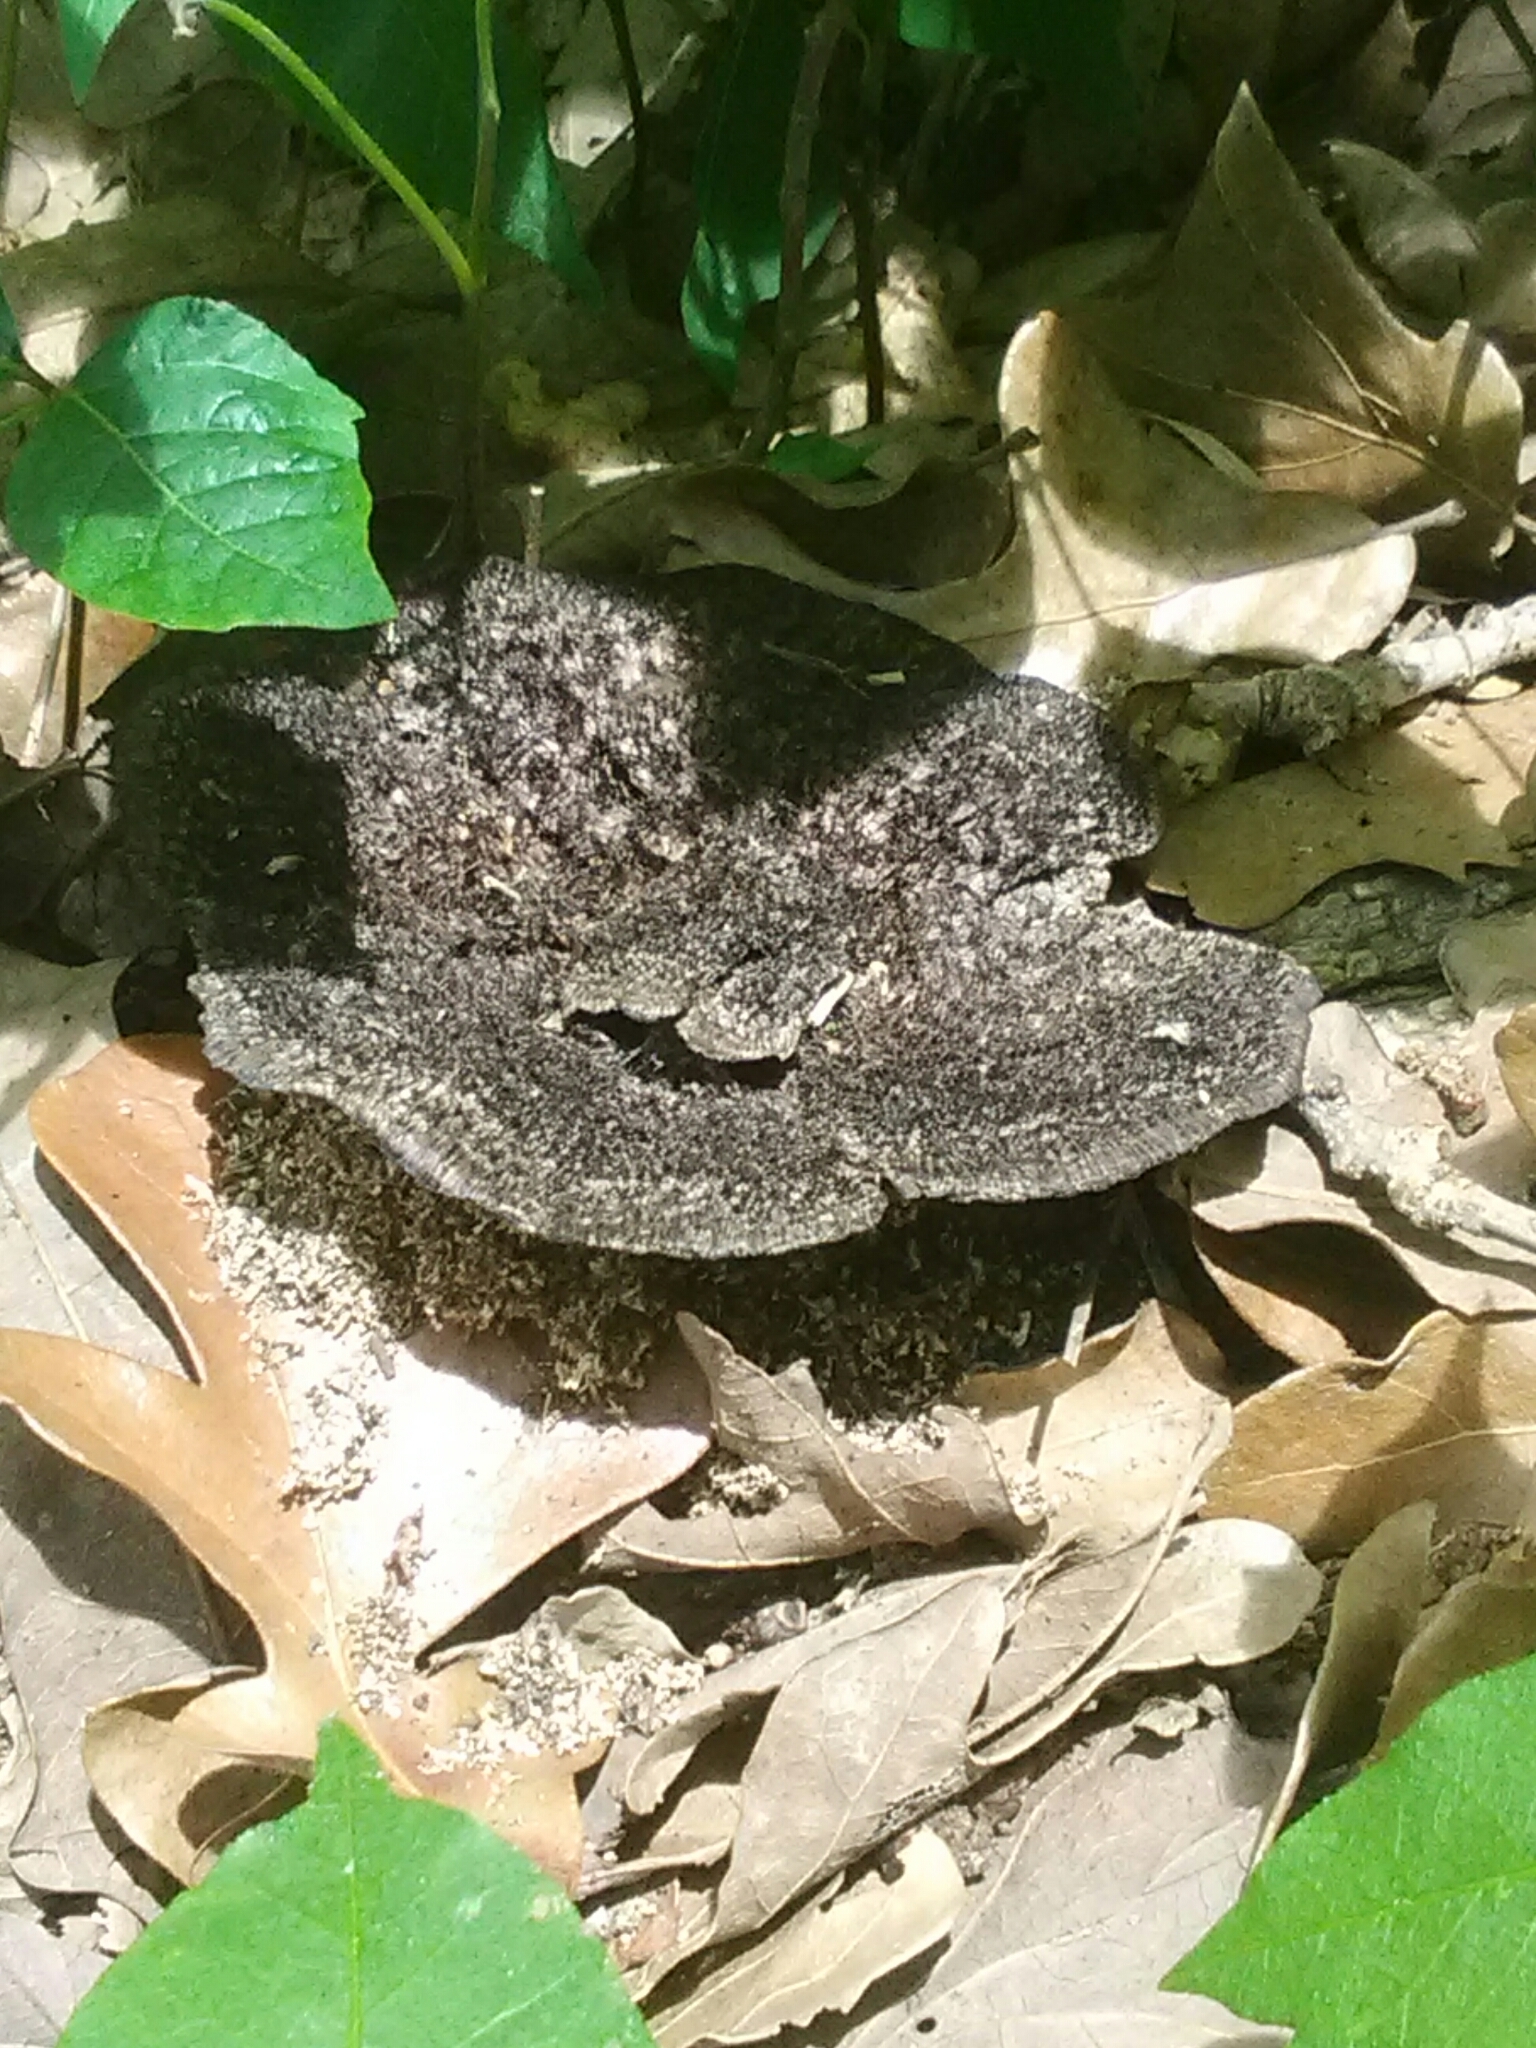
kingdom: Fungi
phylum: Basidiomycota
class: Agaricomycetes
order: Polyporales
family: Cerrenaceae
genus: Cerrena
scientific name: Cerrena hydnoides
